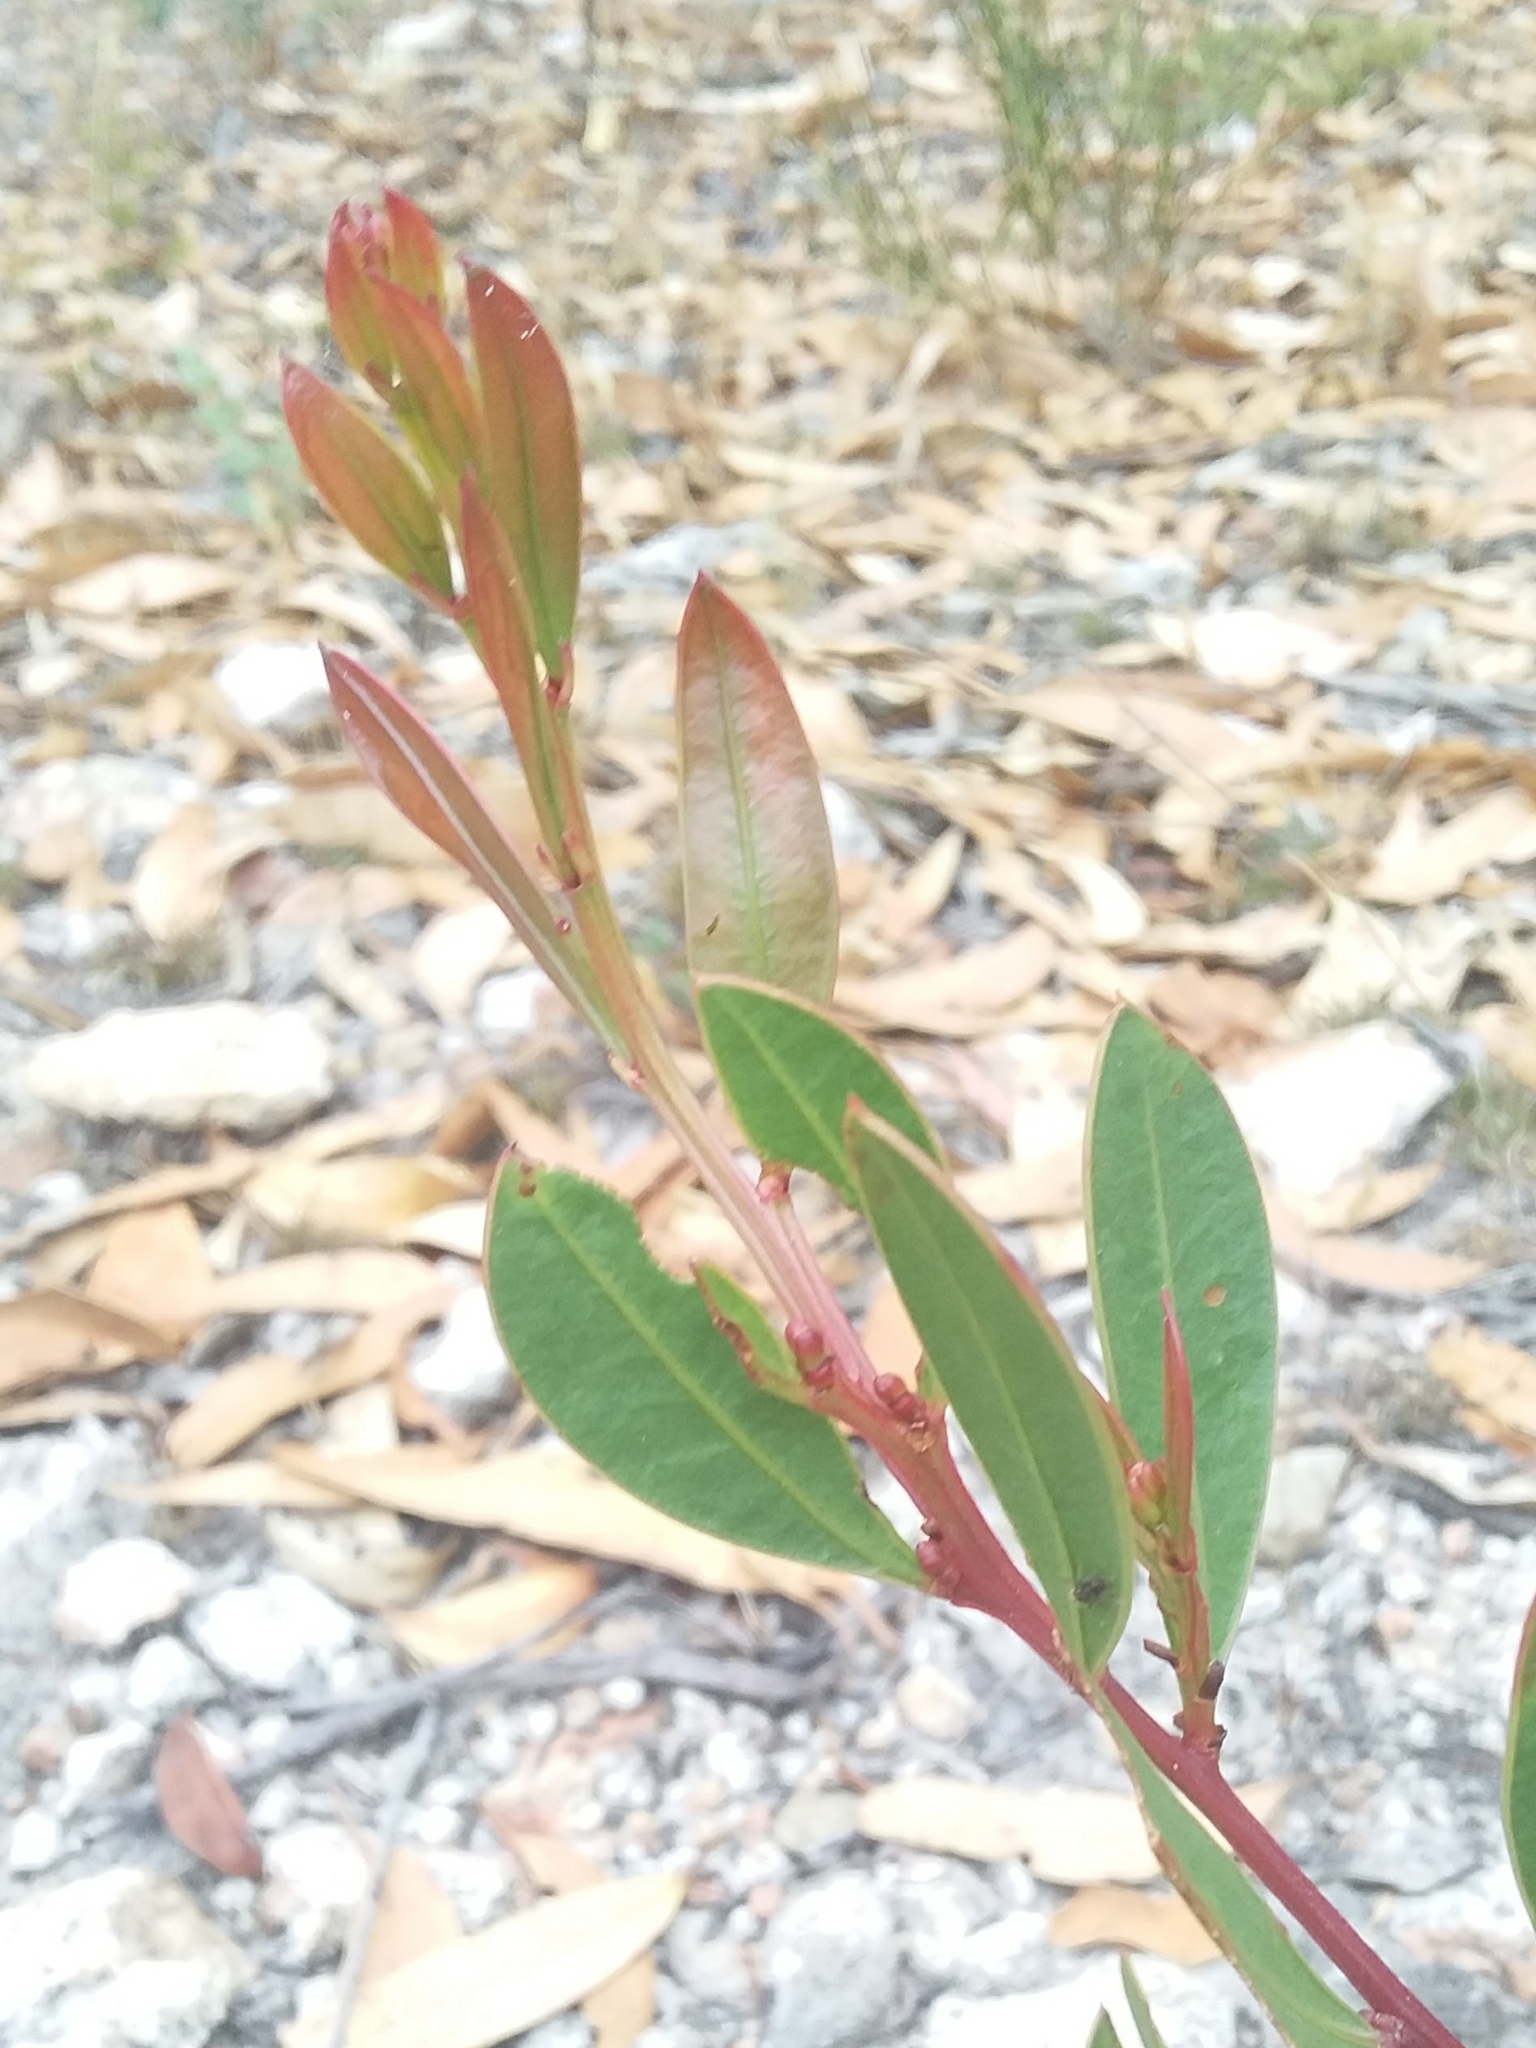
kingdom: Plantae
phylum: Tracheophyta
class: Magnoliopsida
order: Fabales
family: Fabaceae
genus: Acacia
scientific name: Acacia myrtifolia
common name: Myrtle wattle
